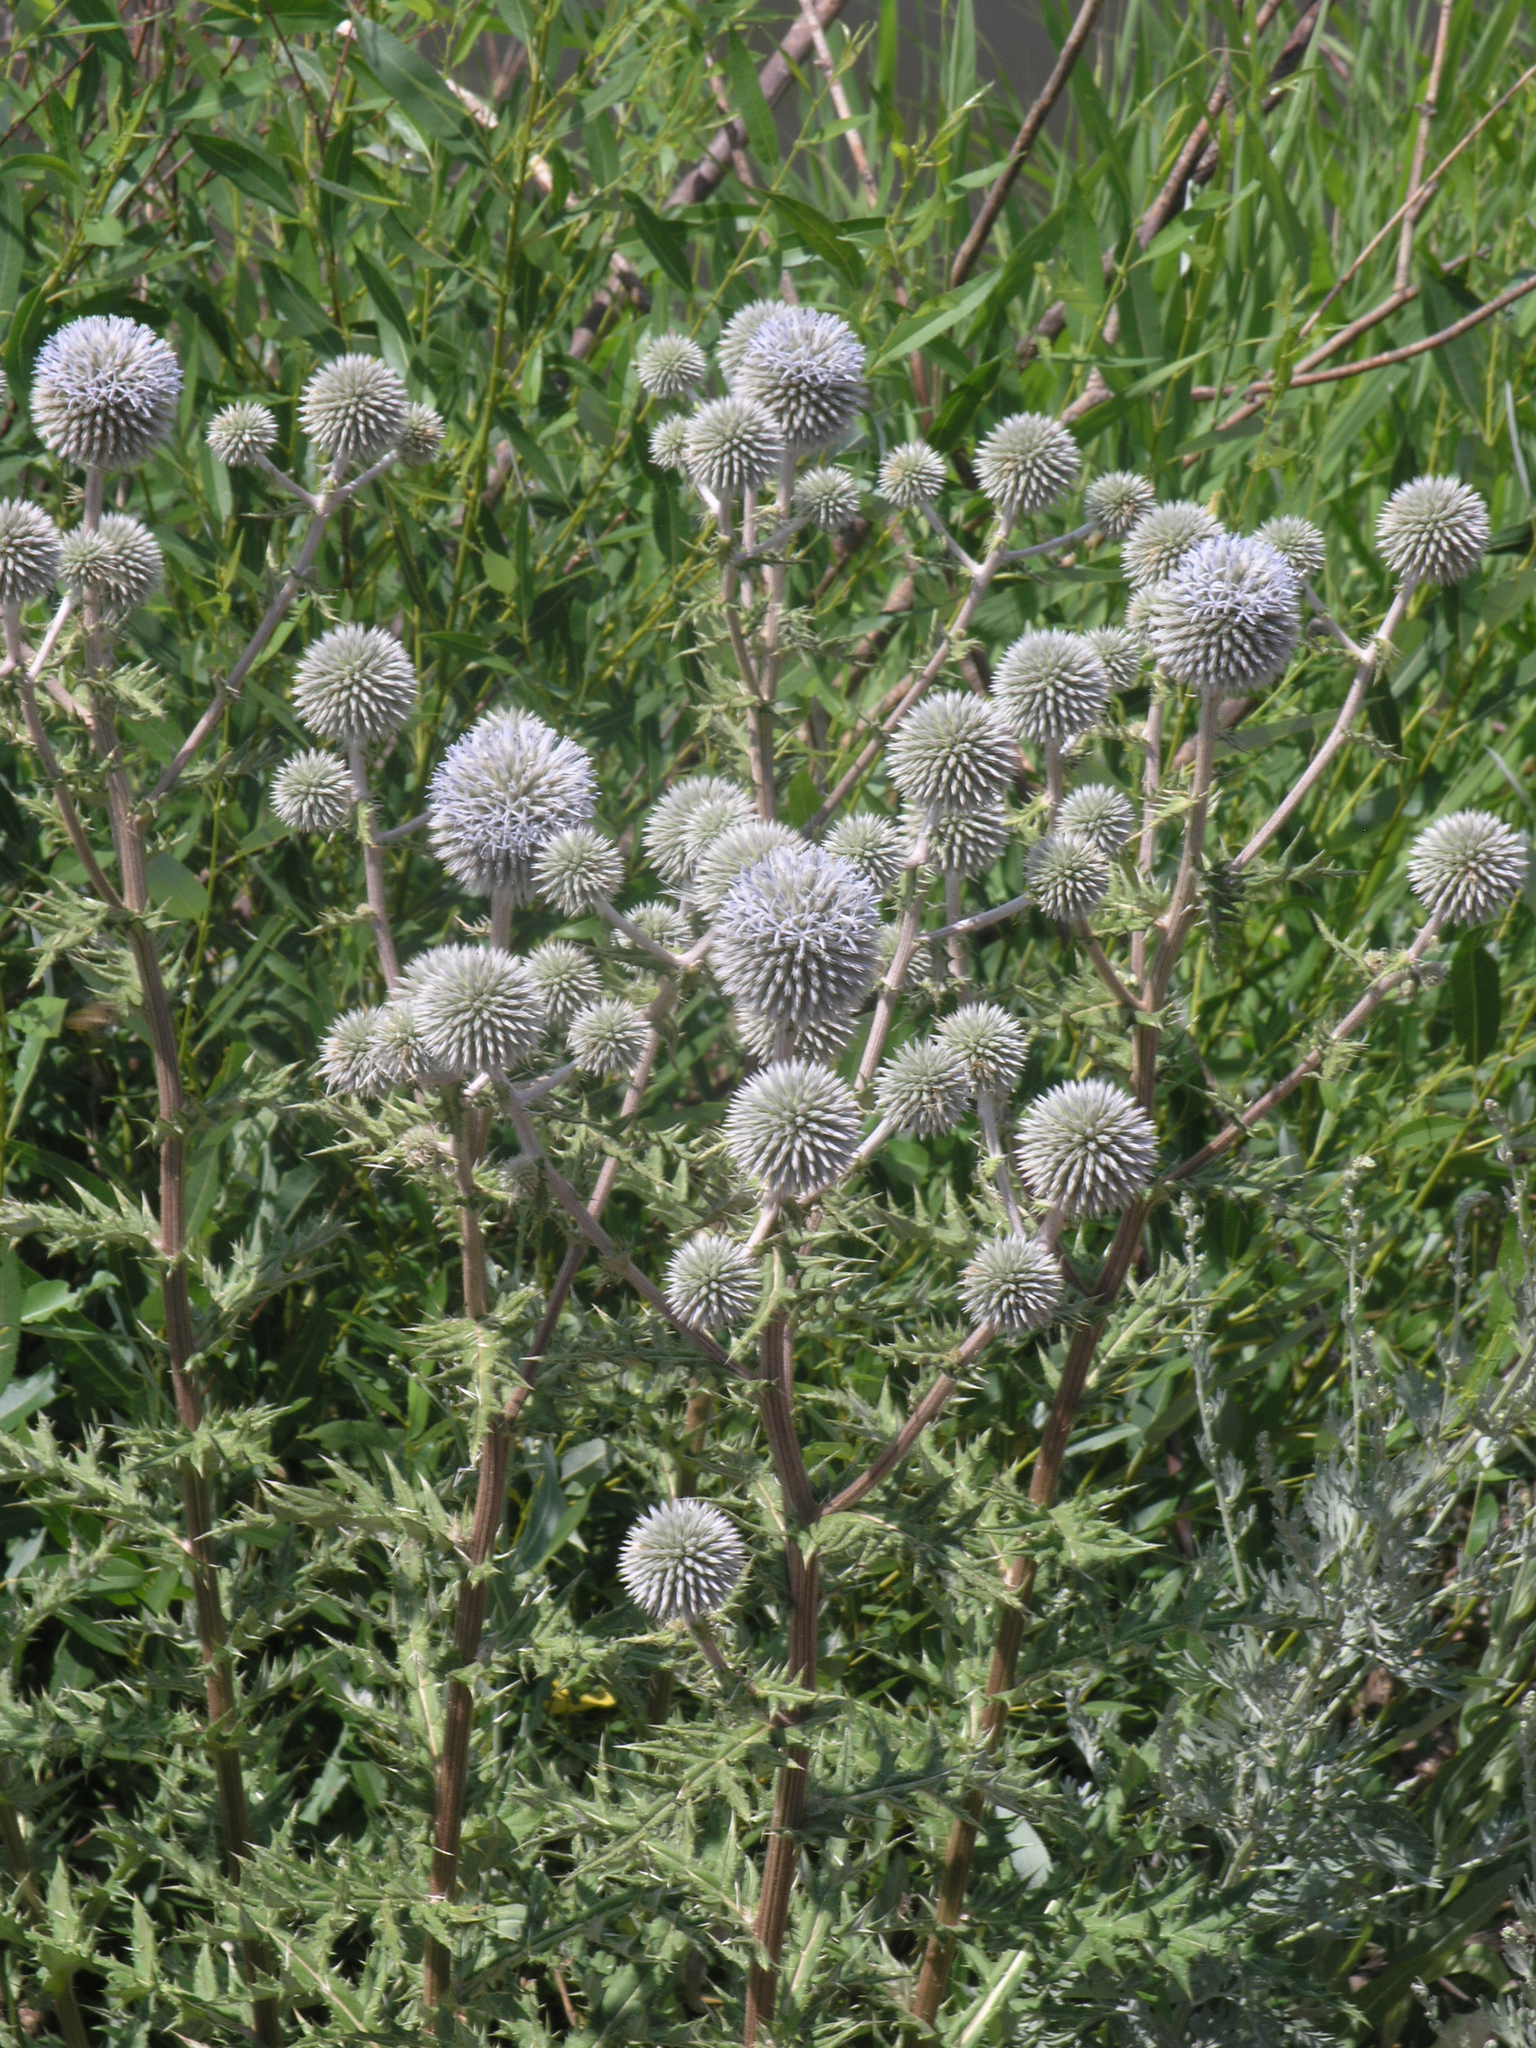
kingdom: Plantae
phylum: Tracheophyta
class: Magnoliopsida
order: Asterales
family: Asteraceae
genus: Echinops
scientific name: Echinops sphaerocephalus
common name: Glandular globe-thistle
